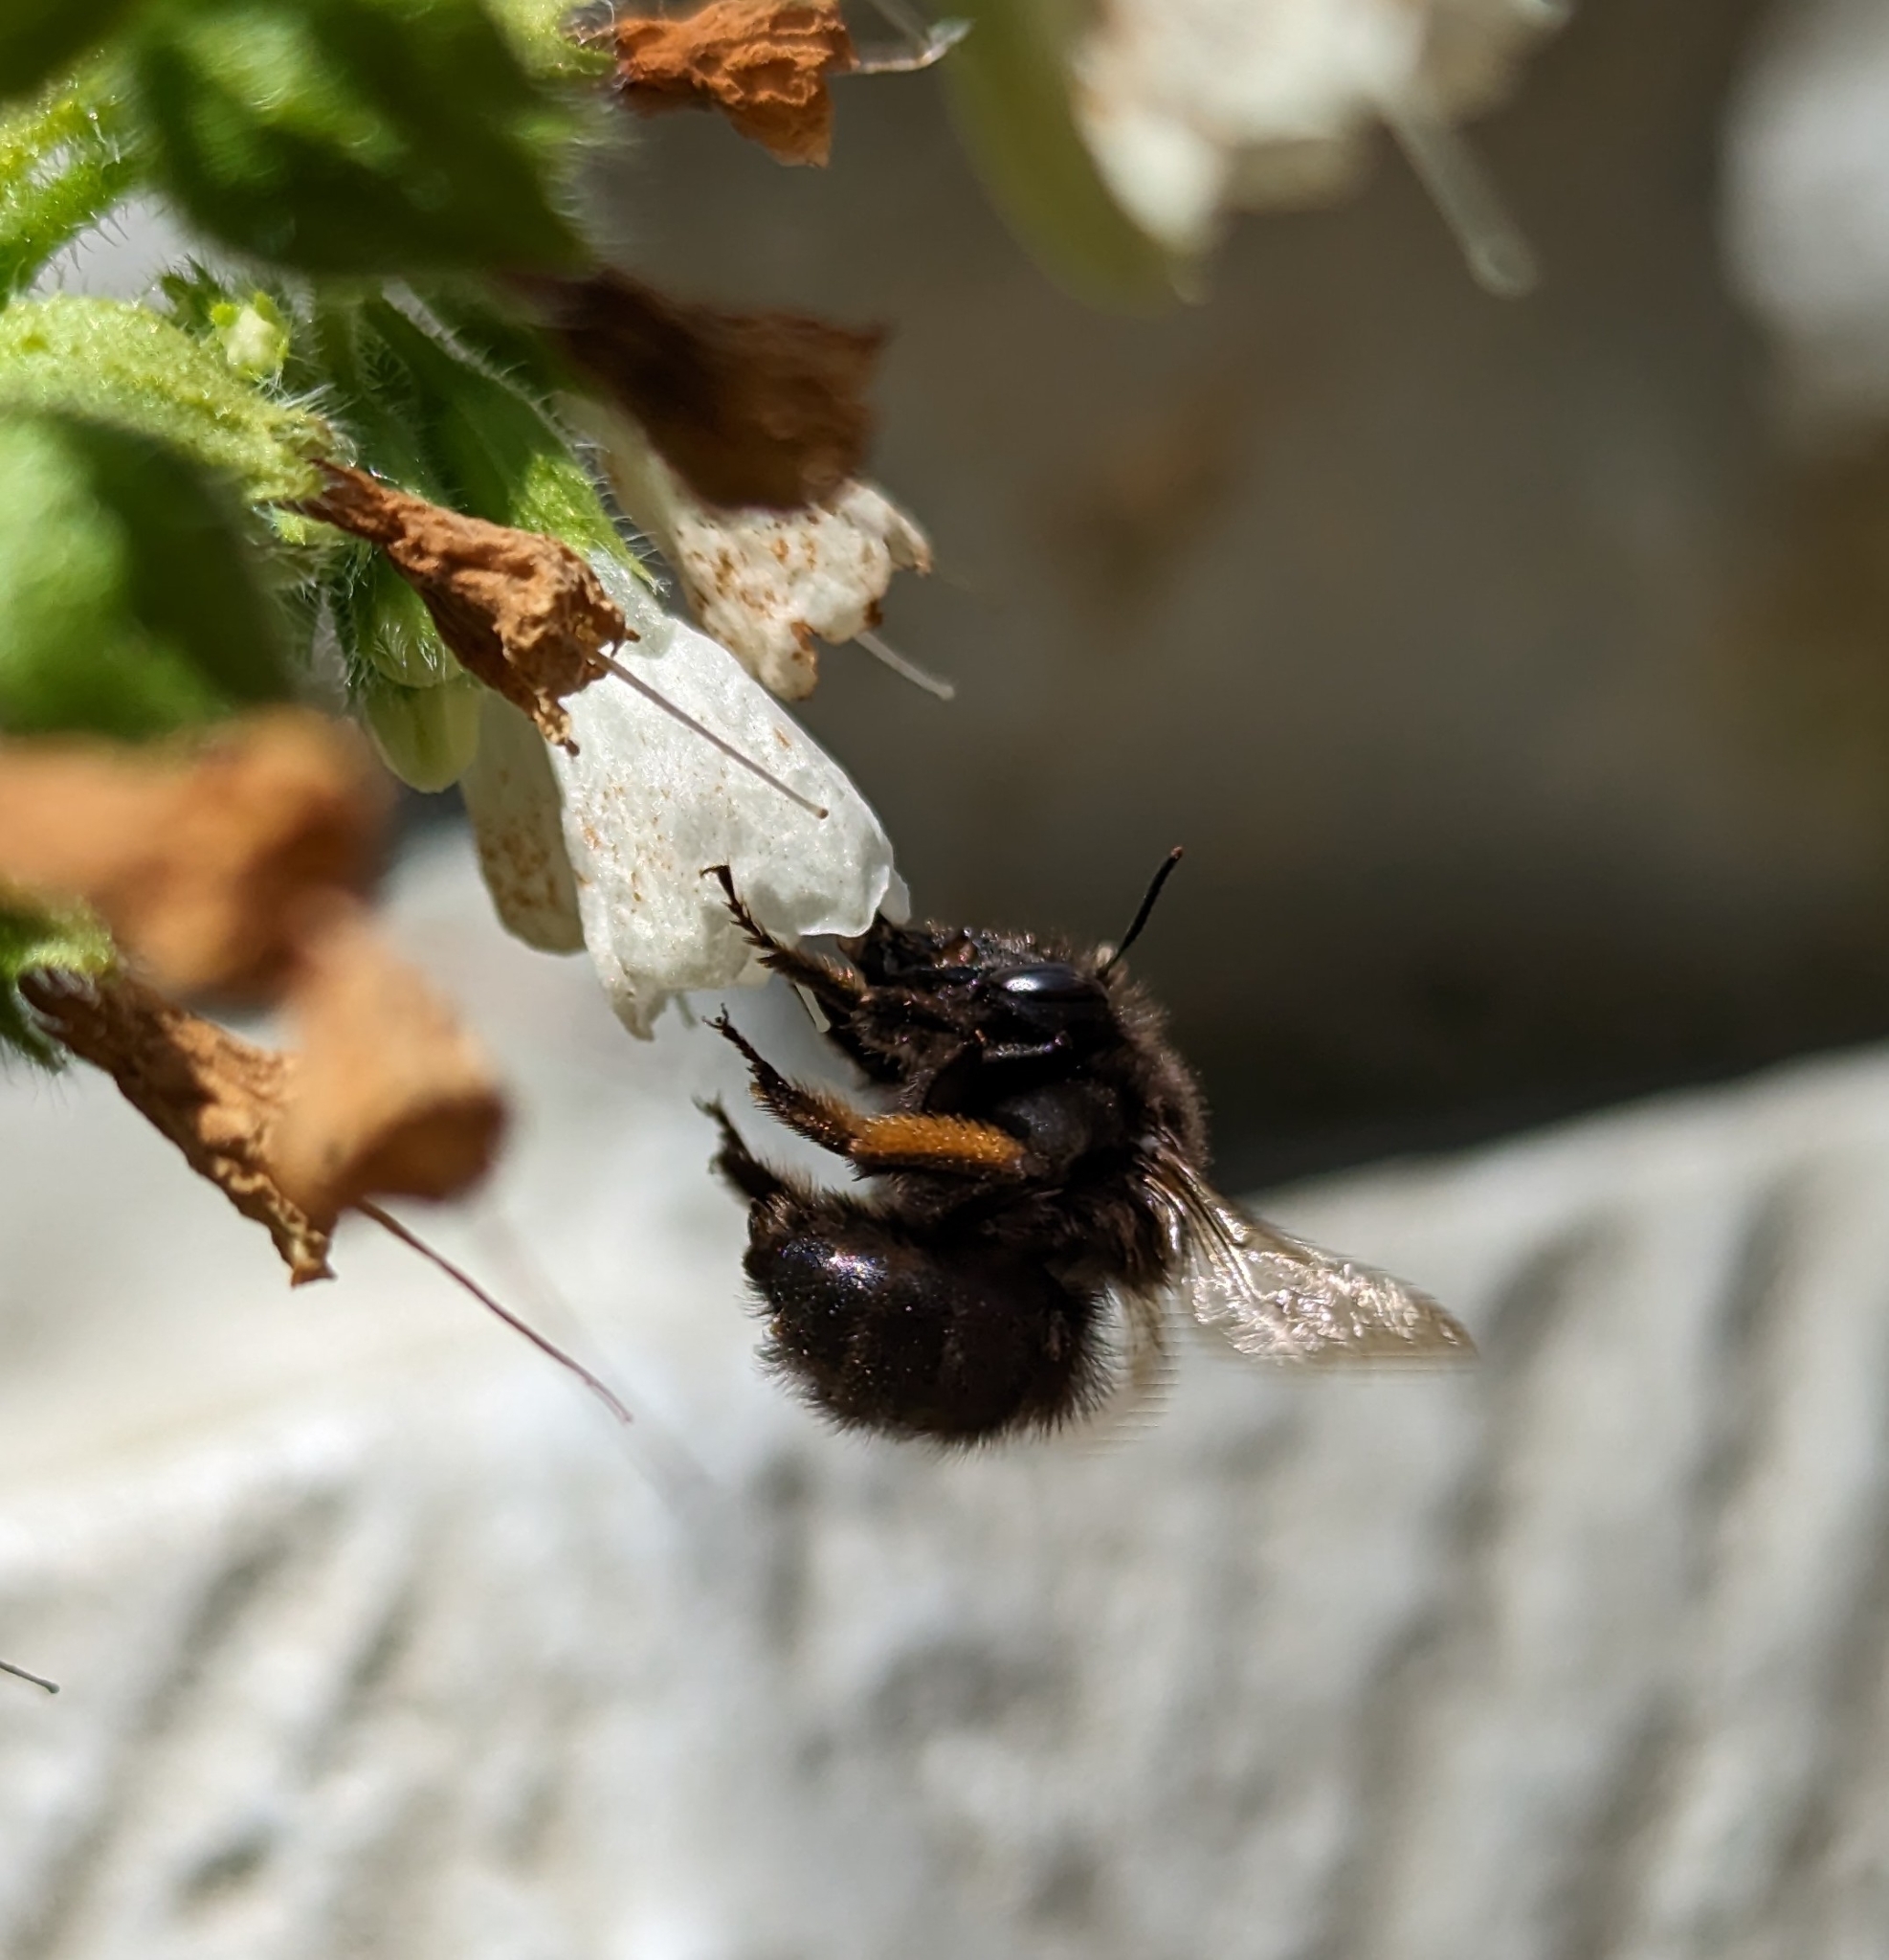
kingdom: Animalia
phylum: Arthropoda
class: Insecta
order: Hymenoptera
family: Apidae
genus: Anthophora
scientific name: Anthophora plumipes
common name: Hairy-footed flower bee
